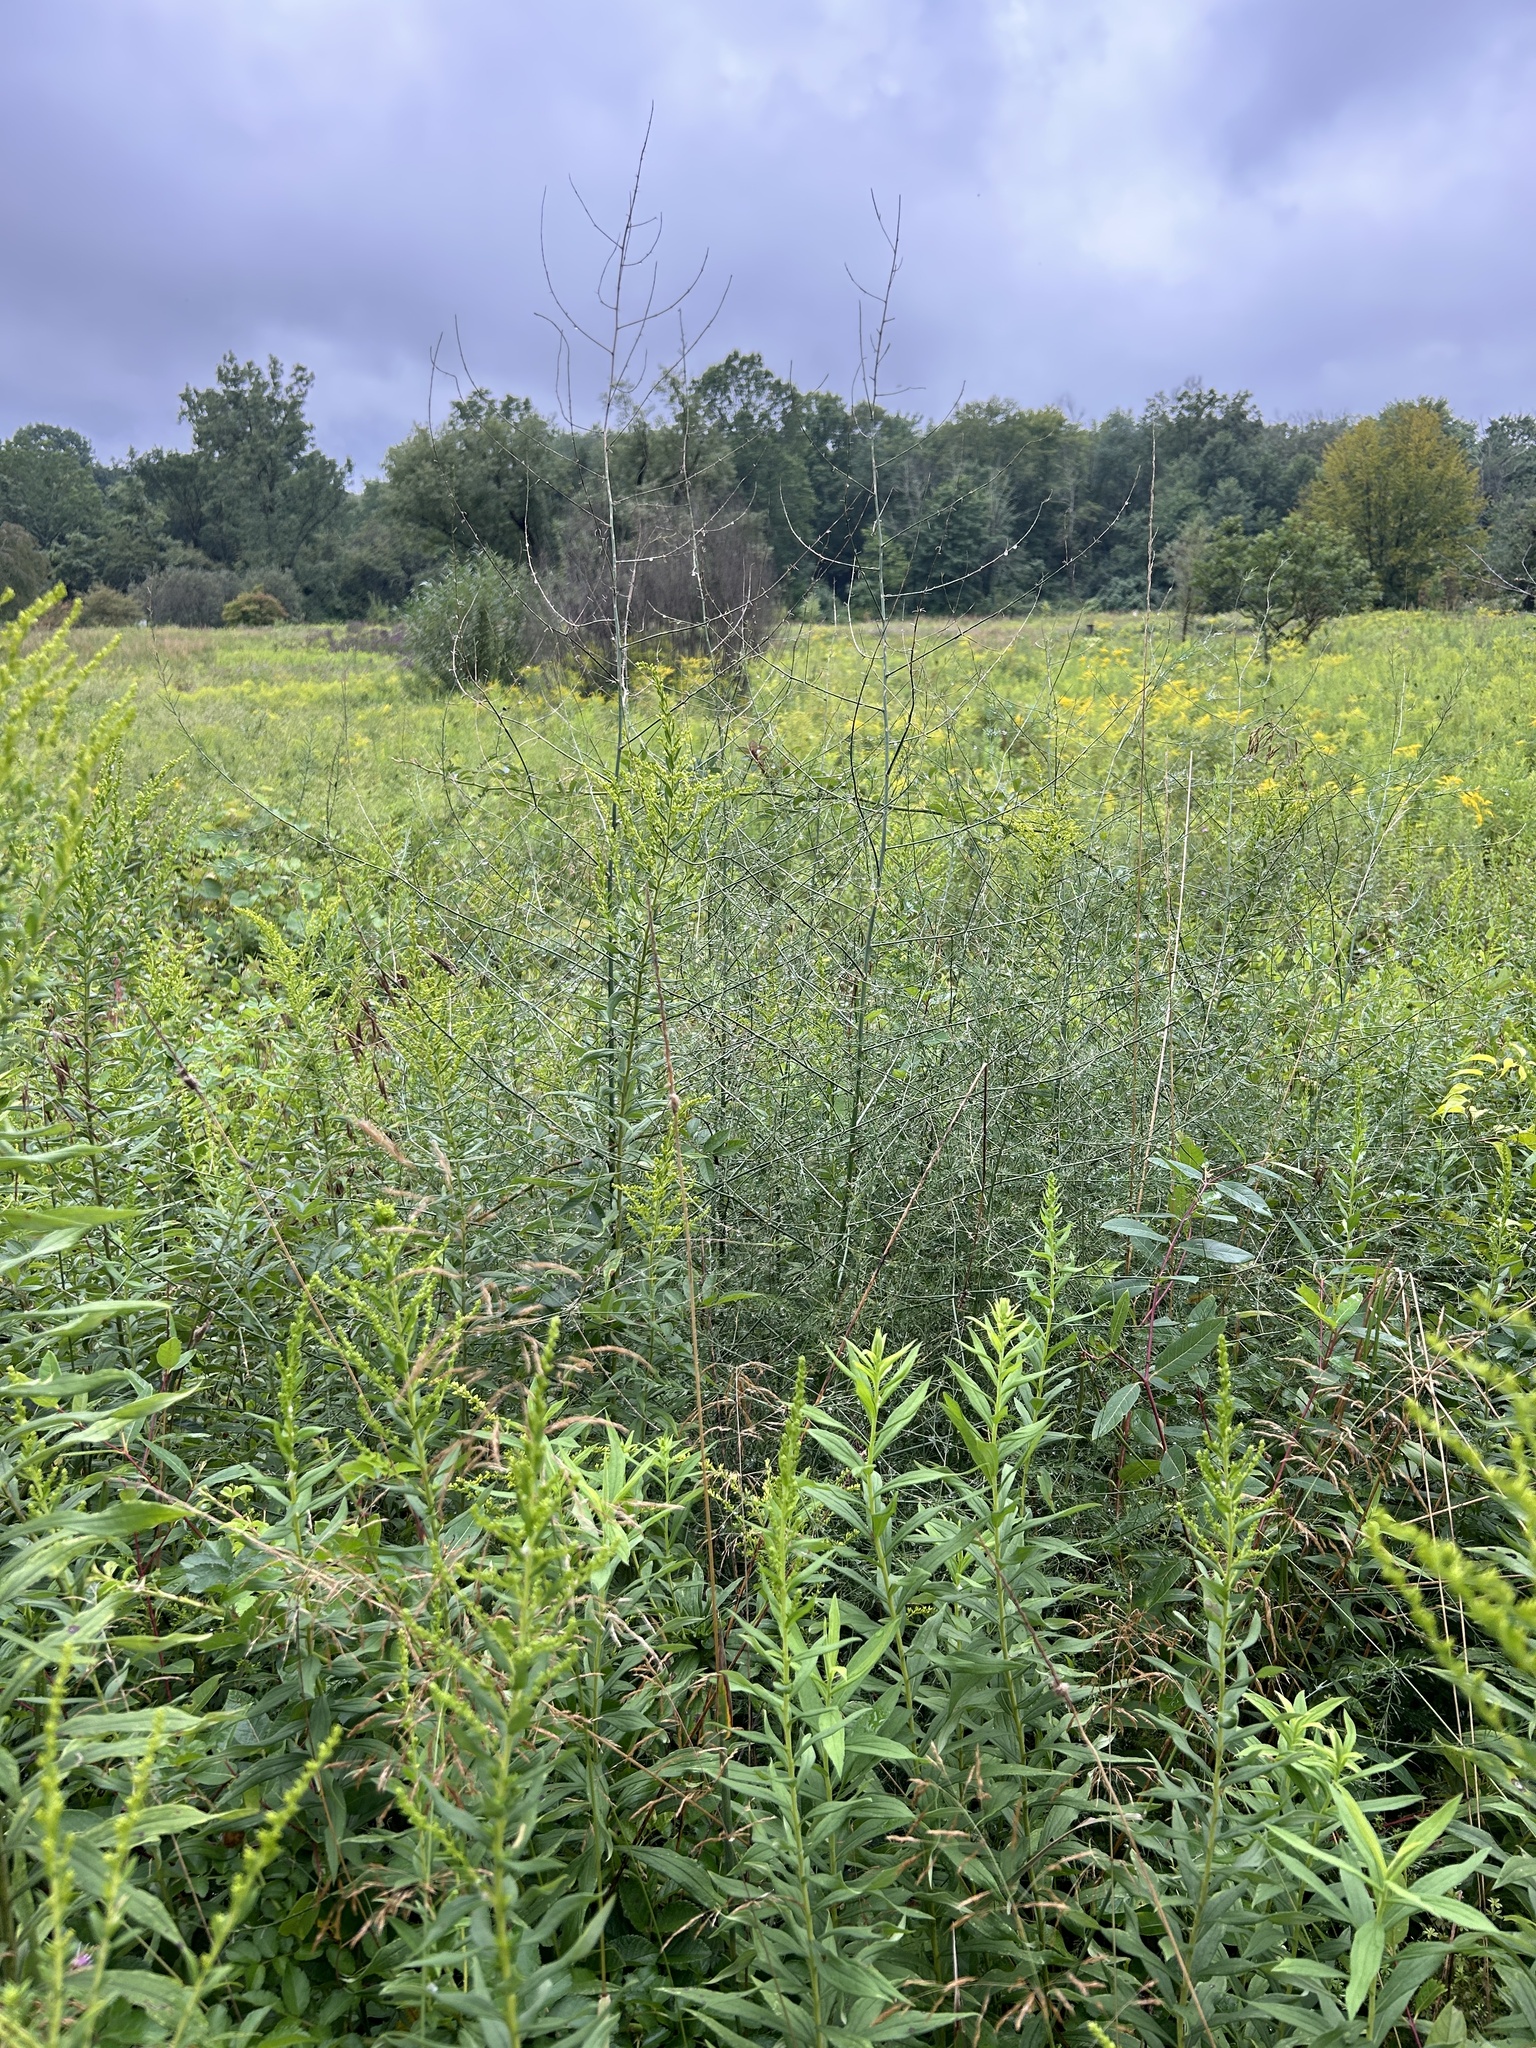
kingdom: Plantae
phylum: Tracheophyta
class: Liliopsida
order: Asparagales
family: Asparagaceae
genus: Asparagus
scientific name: Asparagus officinalis
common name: Garden asparagus
